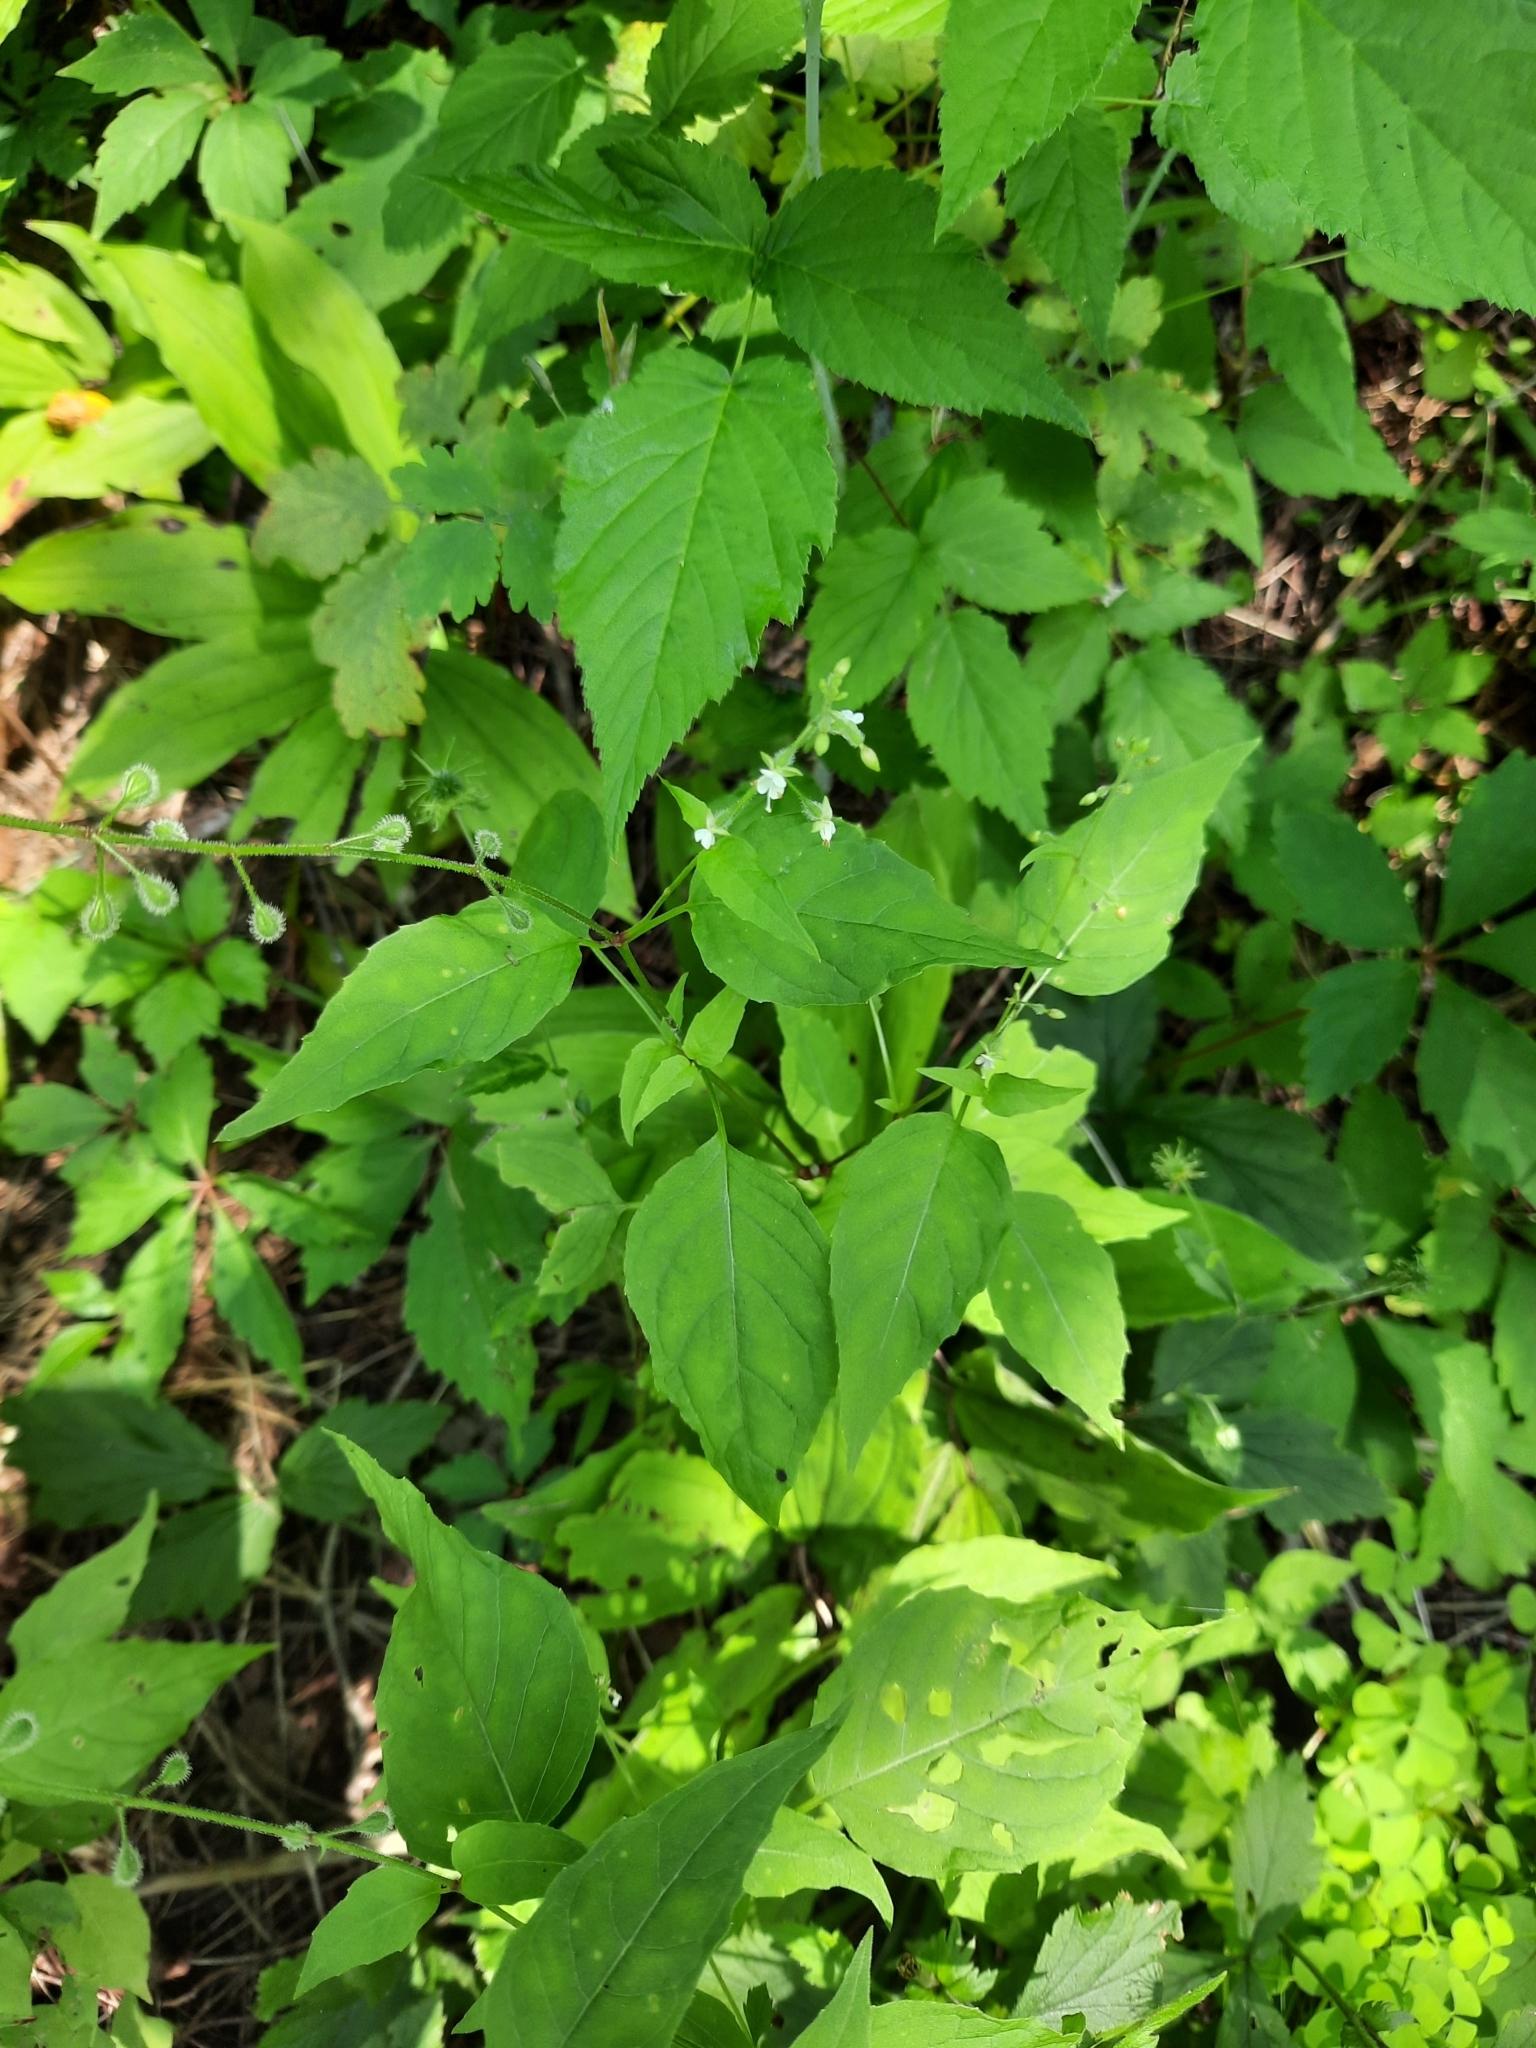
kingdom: Plantae
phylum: Tracheophyta
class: Magnoliopsida
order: Myrtales
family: Onagraceae
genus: Circaea
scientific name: Circaea canadensis
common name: Broad-leaved enchanter's nightshade
